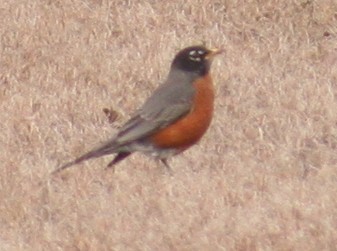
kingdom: Animalia
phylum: Chordata
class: Aves
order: Passeriformes
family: Turdidae
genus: Turdus
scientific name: Turdus migratorius
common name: American robin
